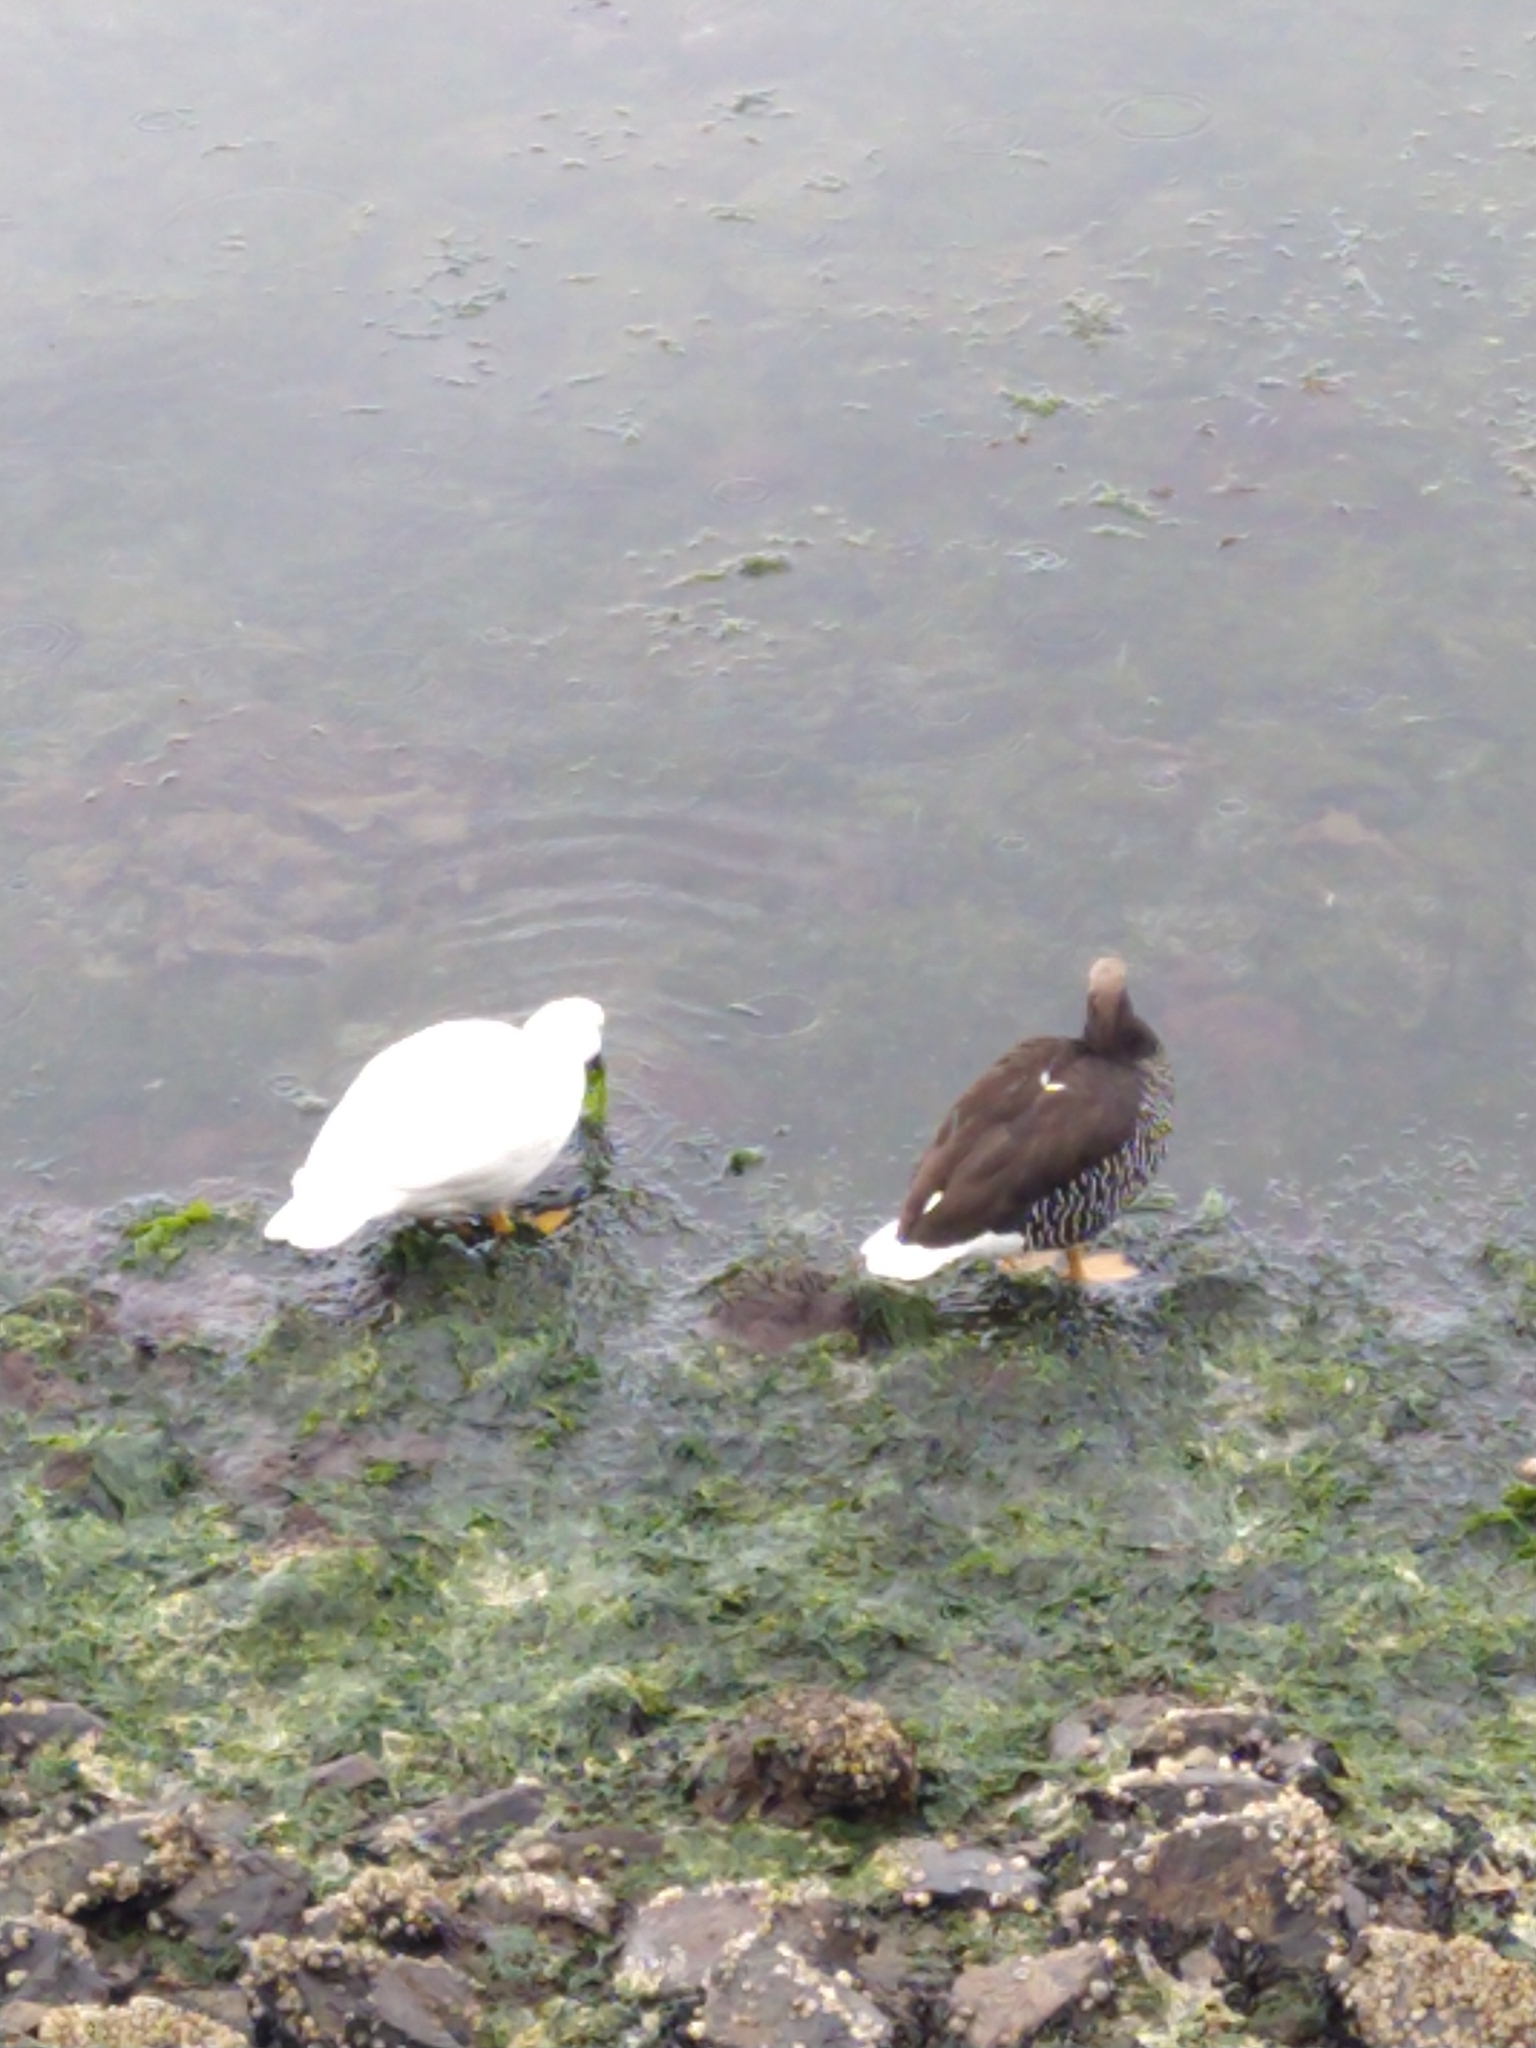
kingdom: Animalia
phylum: Chordata
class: Aves
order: Anseriformes
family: Anatidae
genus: Chloephaga
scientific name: Chloephaga hybrida
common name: Kelp goose
